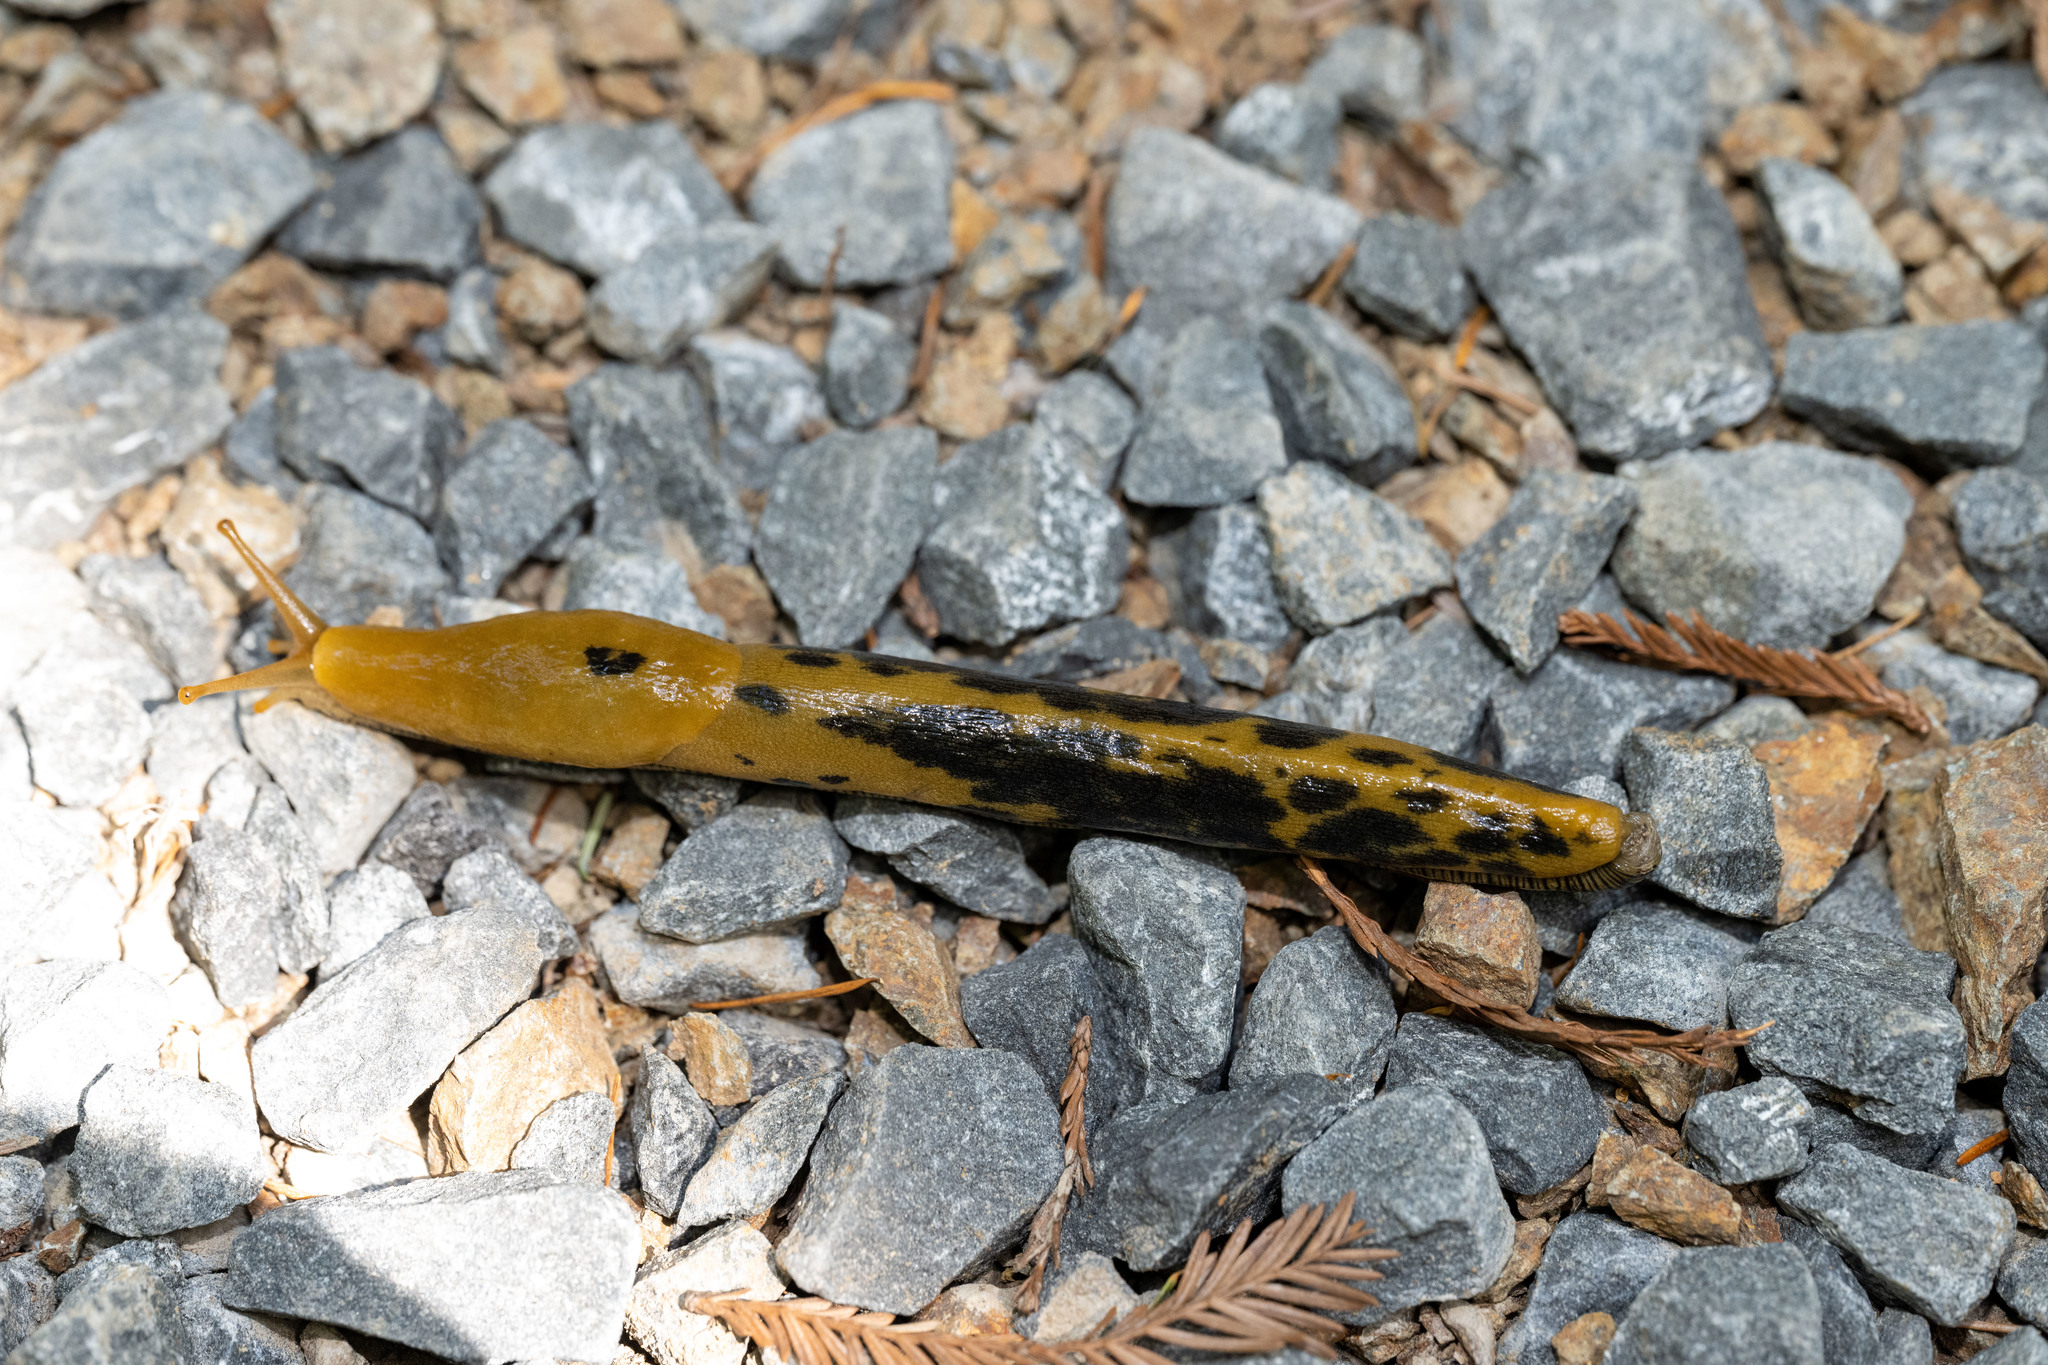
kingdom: Animalia
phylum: Mollusca
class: Gastropoda
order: Stylommatophora
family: Ariolimacidae
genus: Ariolimax
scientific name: Ariolimax buttoni
